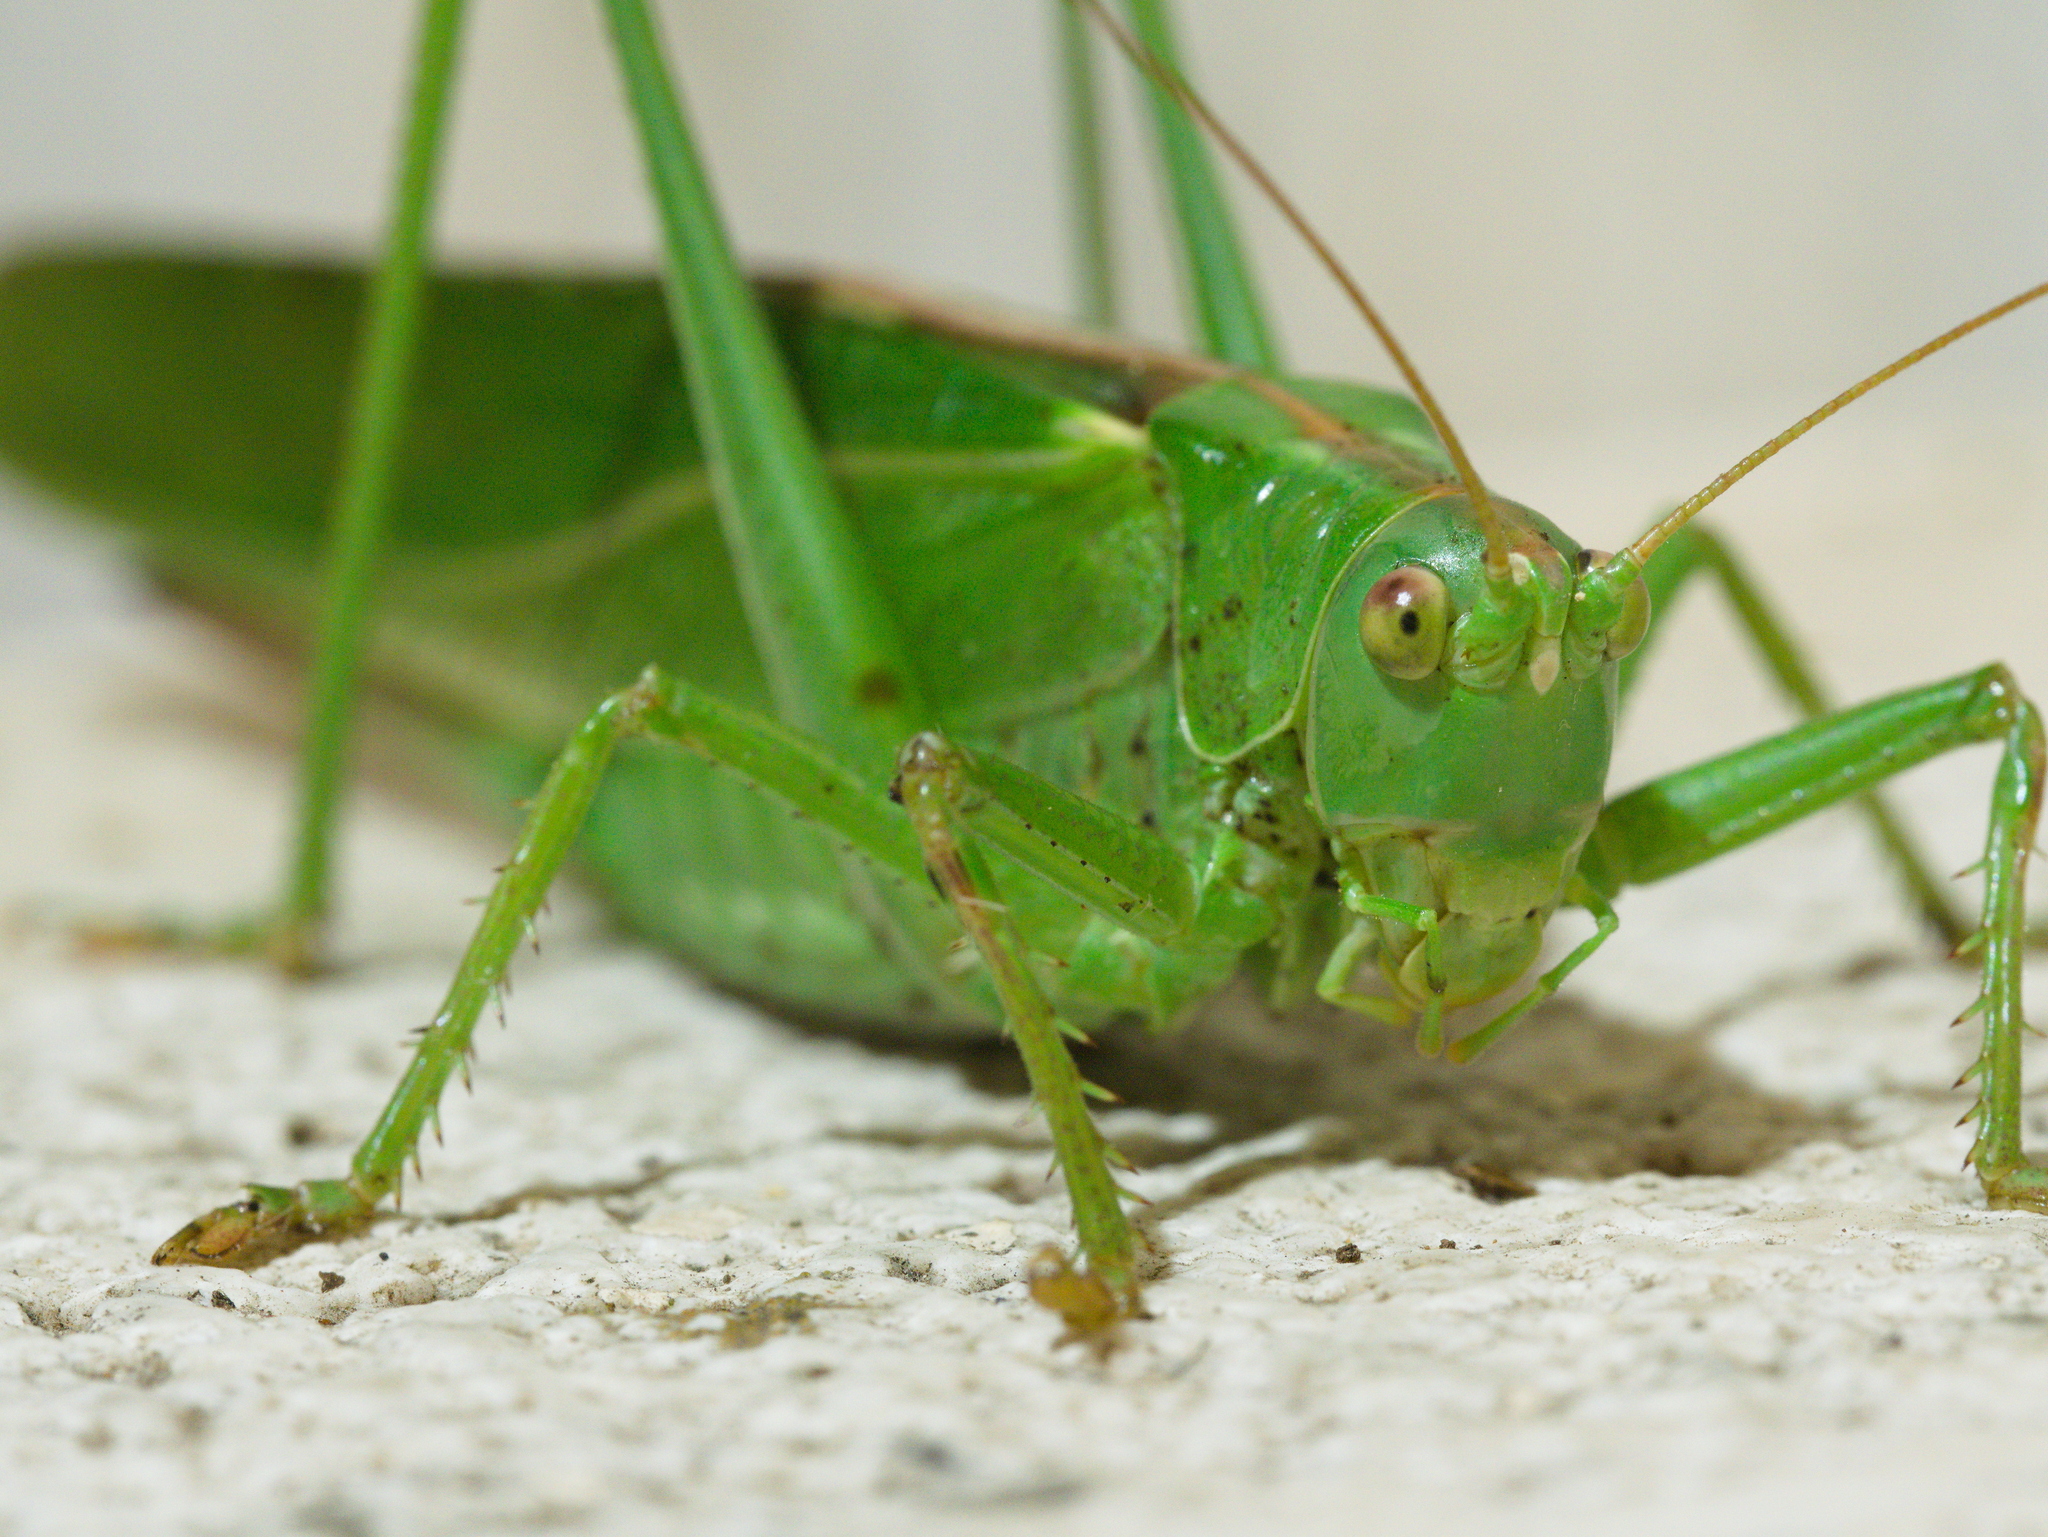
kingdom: Animalia
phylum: Arthropoda
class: Insecta
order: Orthoptera
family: Tettigoniidae
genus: Tettigonia
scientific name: Tettigonia viridissima
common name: Great green bush-cricket
